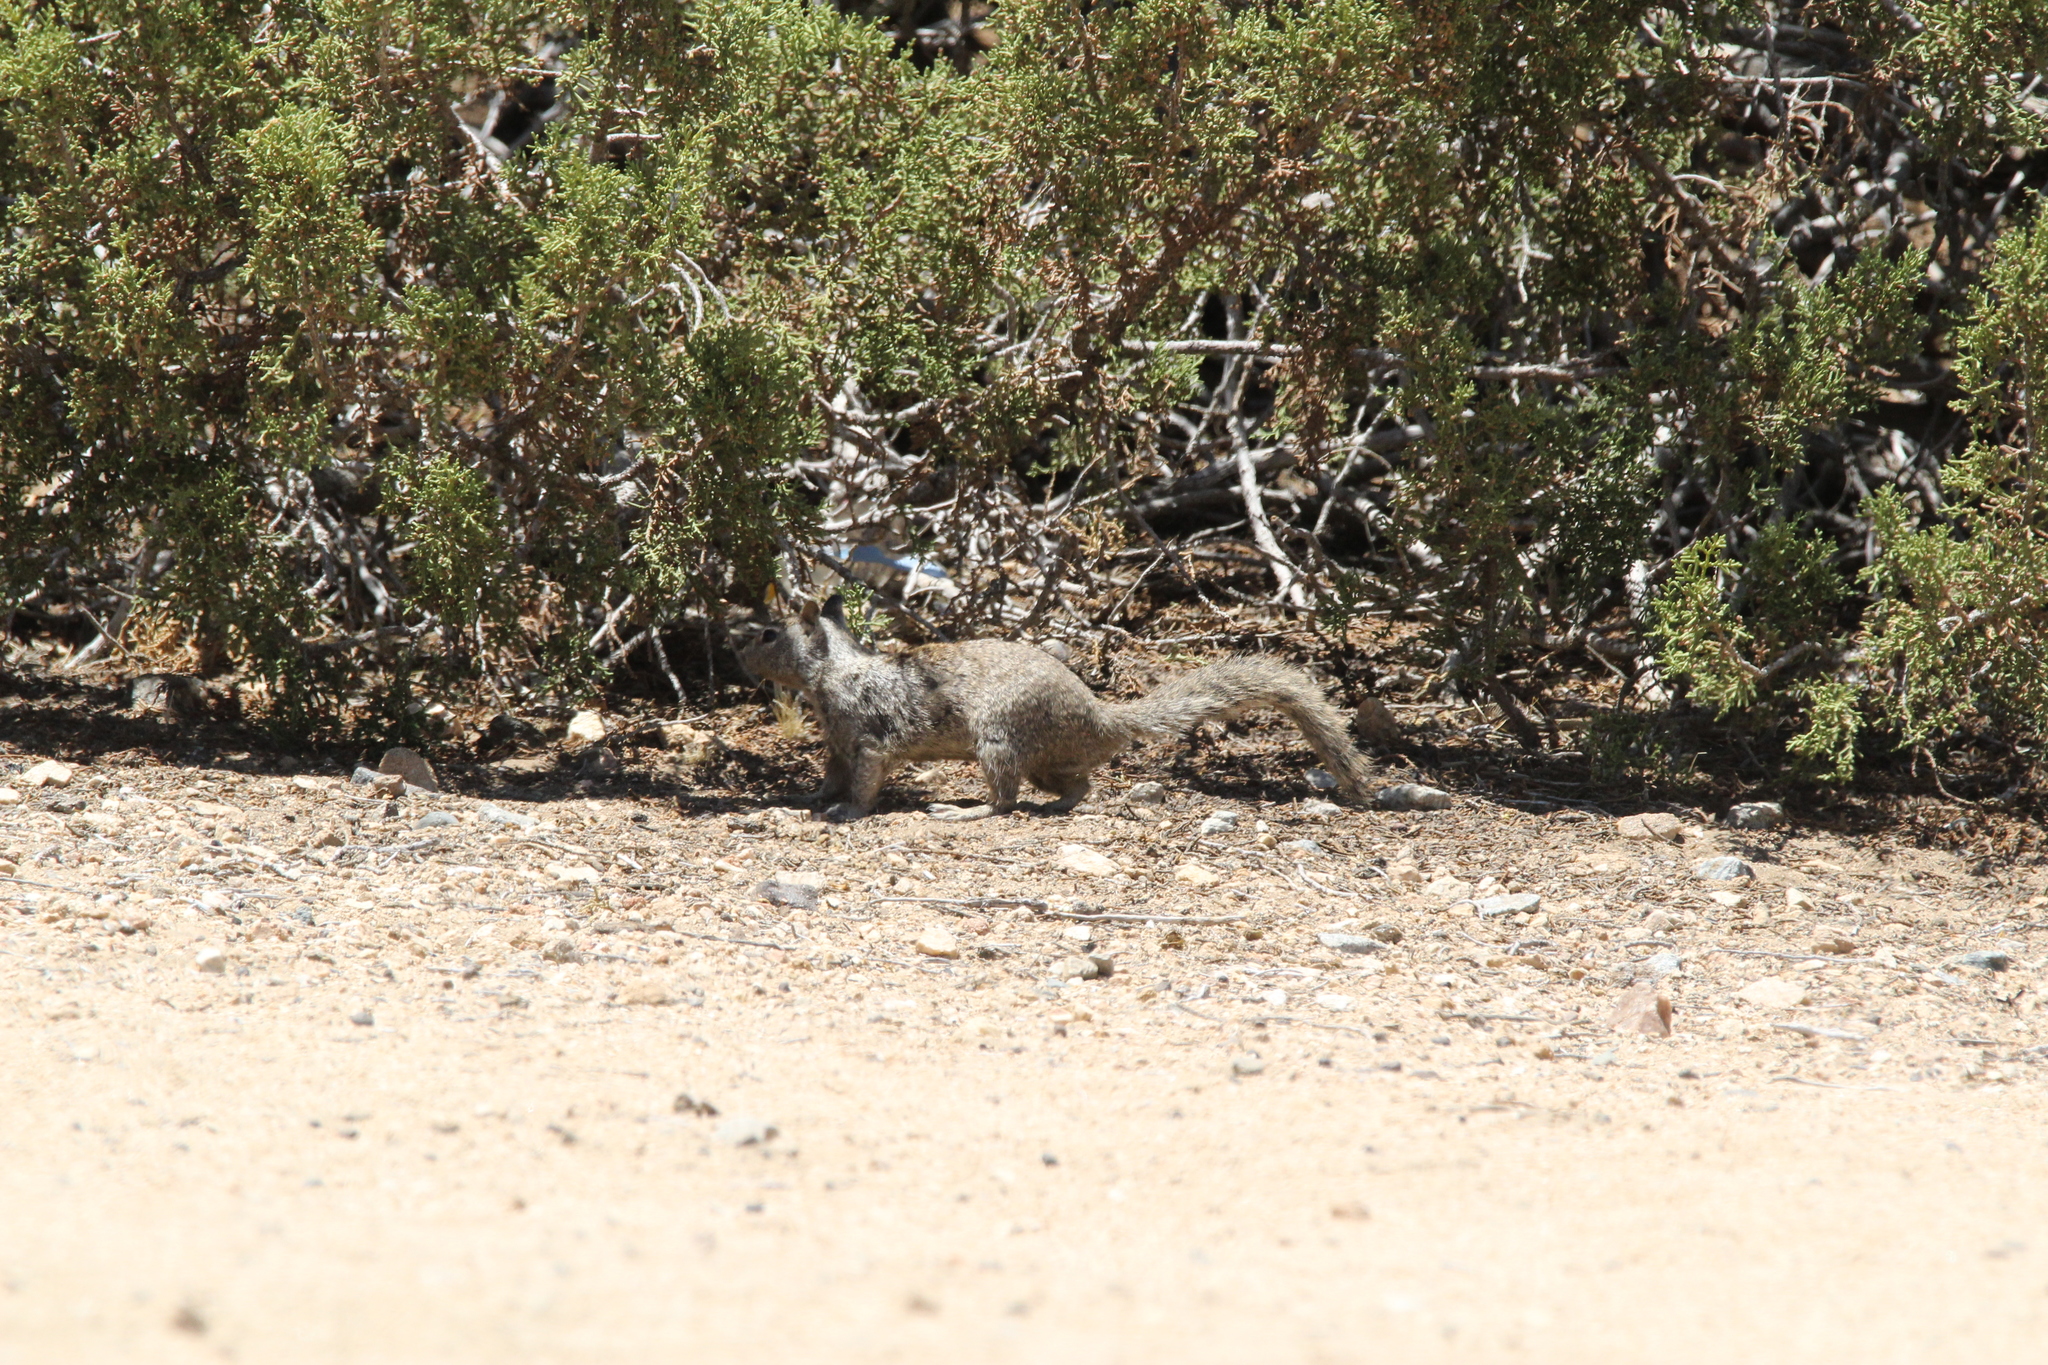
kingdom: Animalia
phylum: Chordata
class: Mammalia
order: Rodentia
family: Sciuridae
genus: Otospermophilus
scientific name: Otospermophilus beecheyi
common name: California ground squirrel
